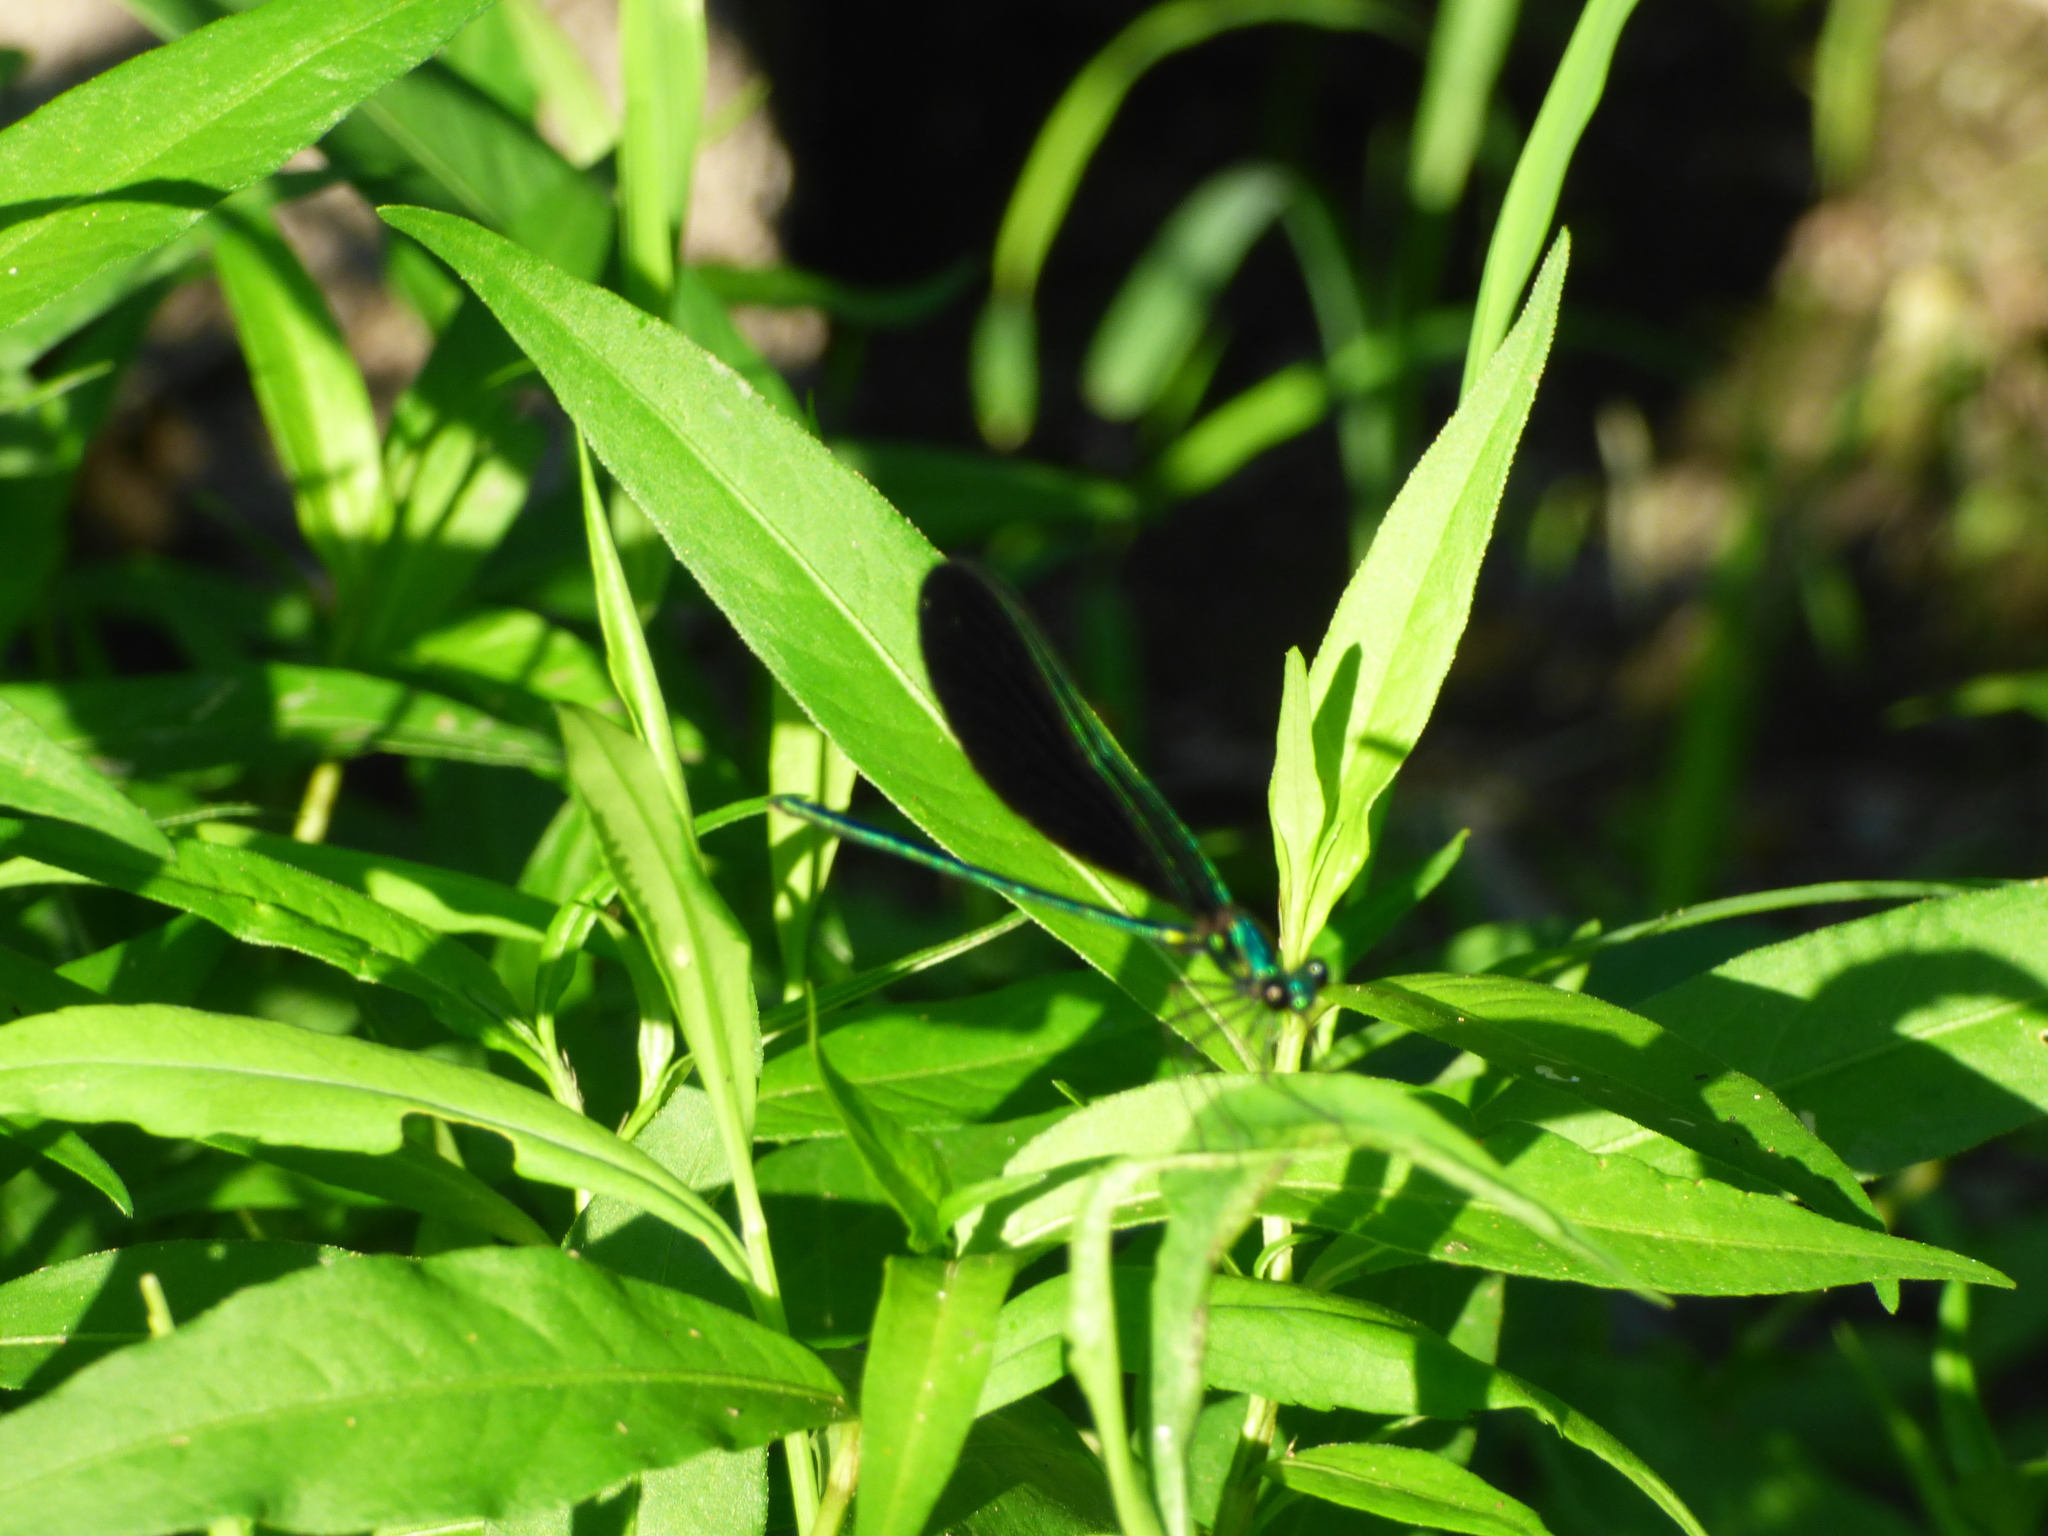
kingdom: Animalia
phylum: Arthropoda
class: Insecta
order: Odonata
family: Calopterygidae
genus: Calopteryx
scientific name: Calopteryx maculata
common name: Ebony jewelwing
